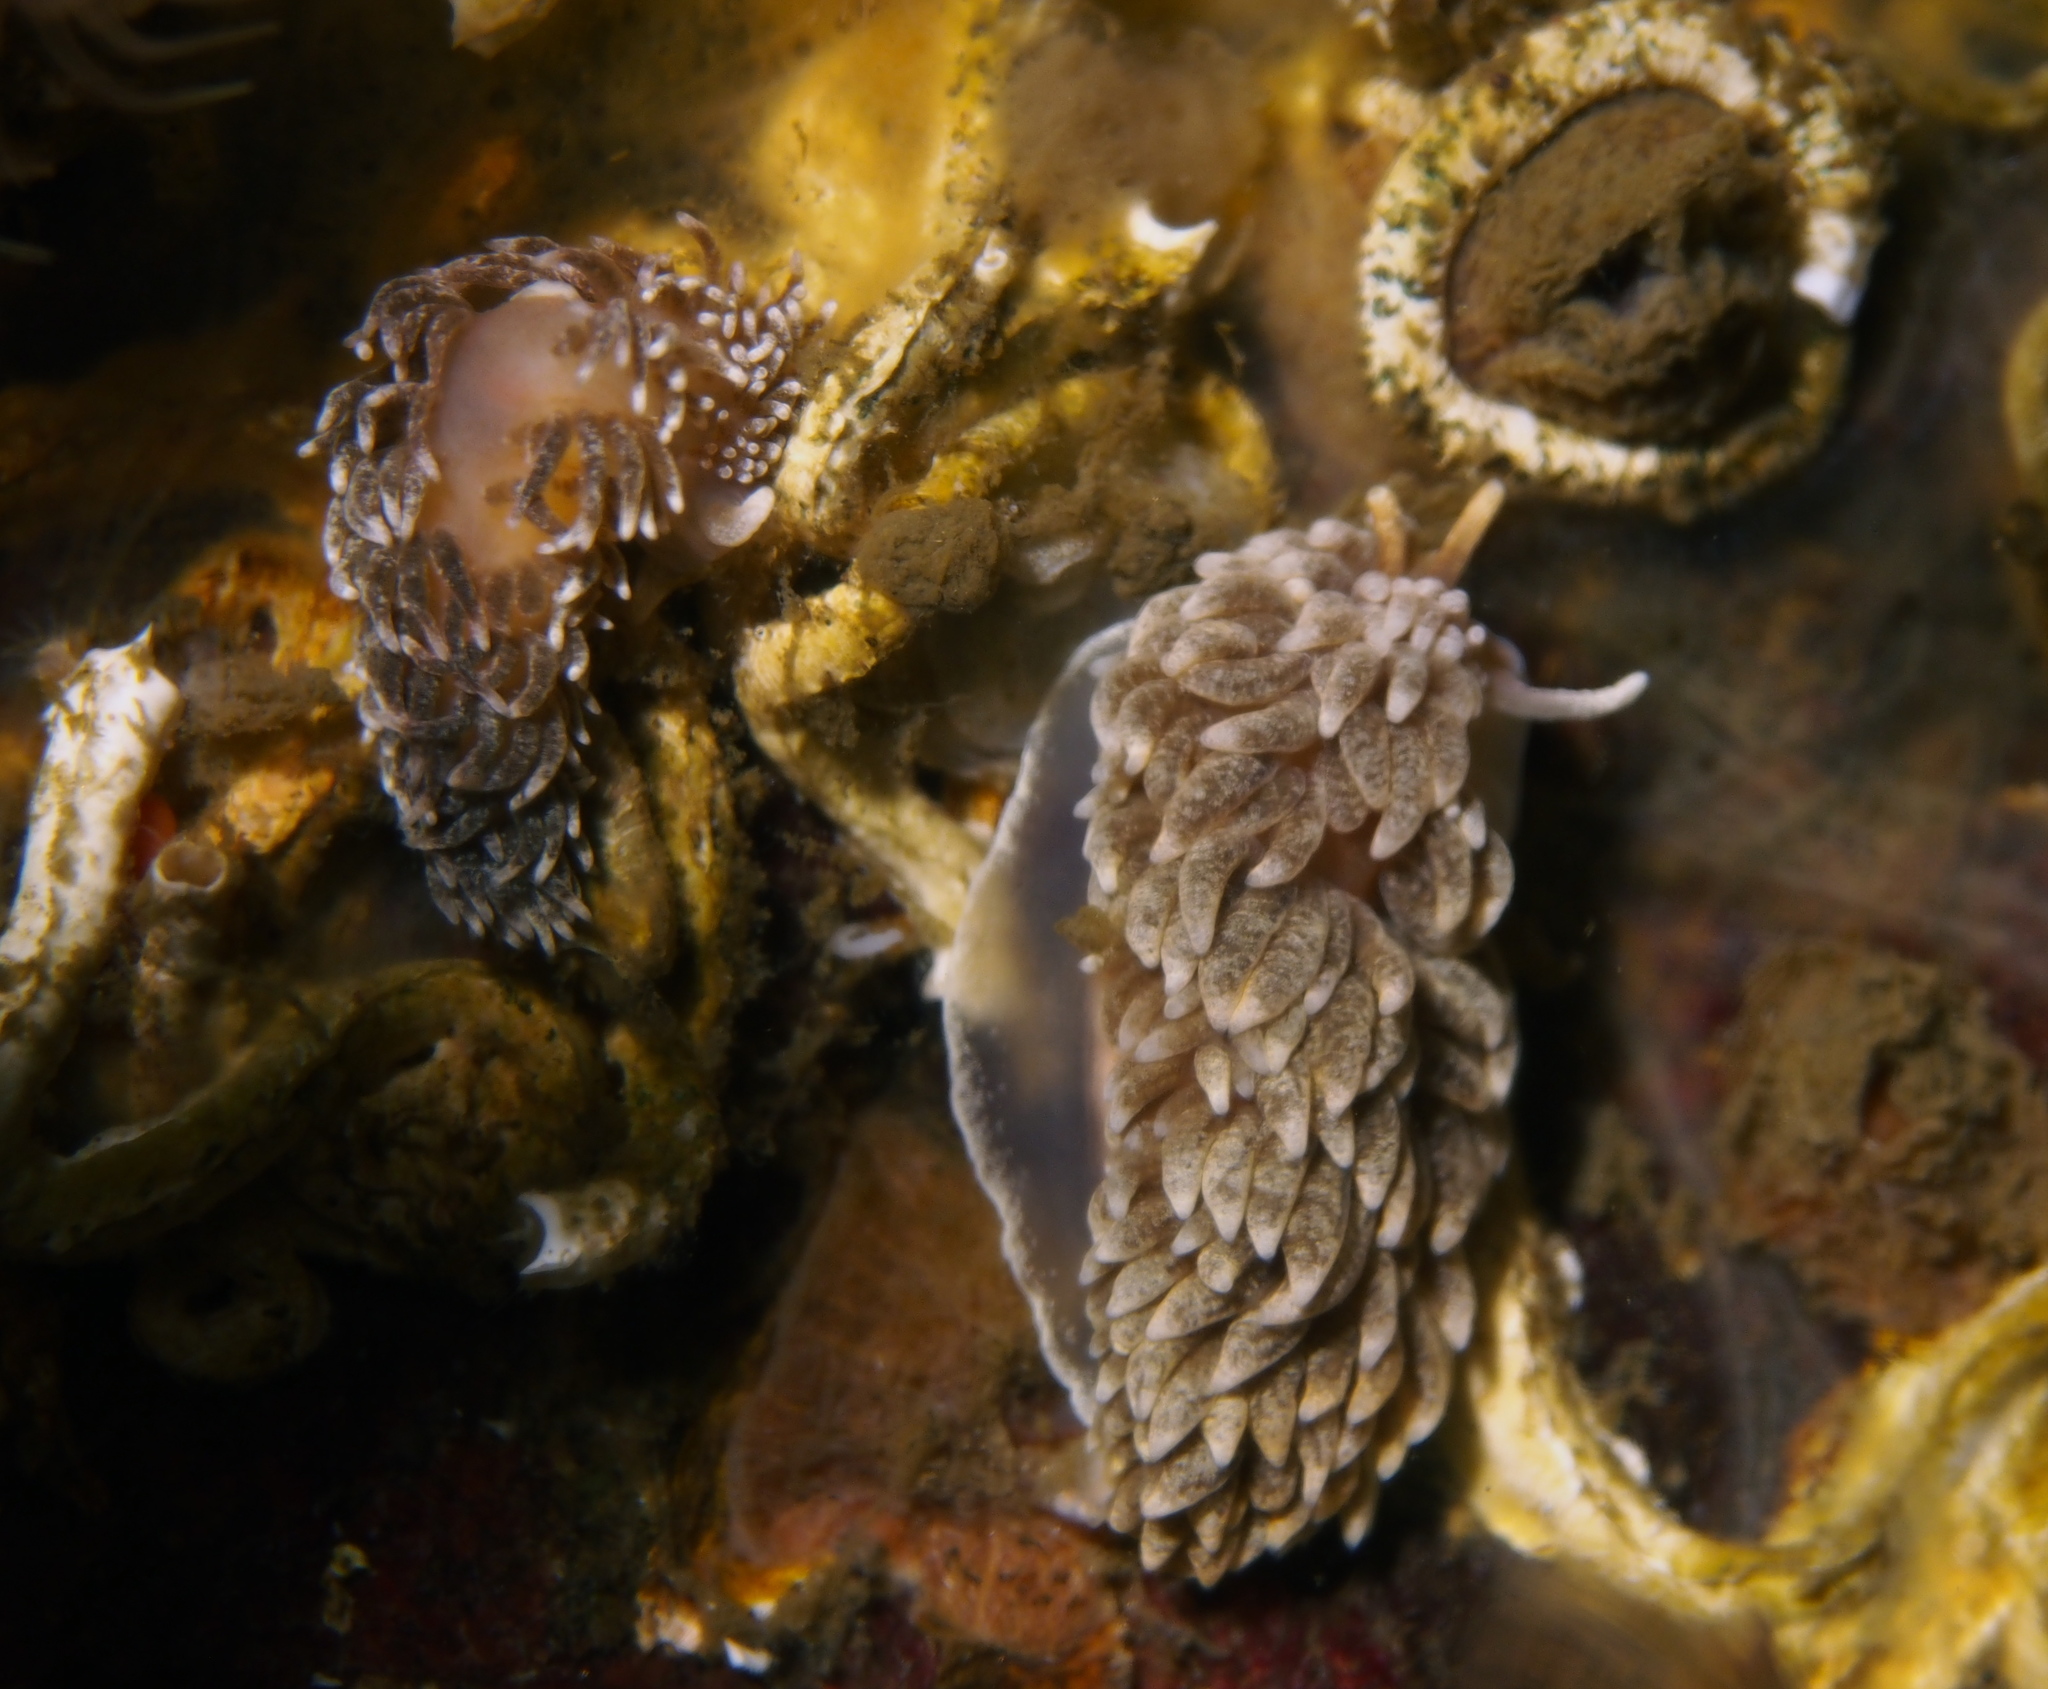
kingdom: Animalia
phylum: Mollusca
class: Gastropoda
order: Nudibranchia
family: Aeolidiidae
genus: Aeolidiella
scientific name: Aeolidiella glauca
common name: Orange-brown aeolid
